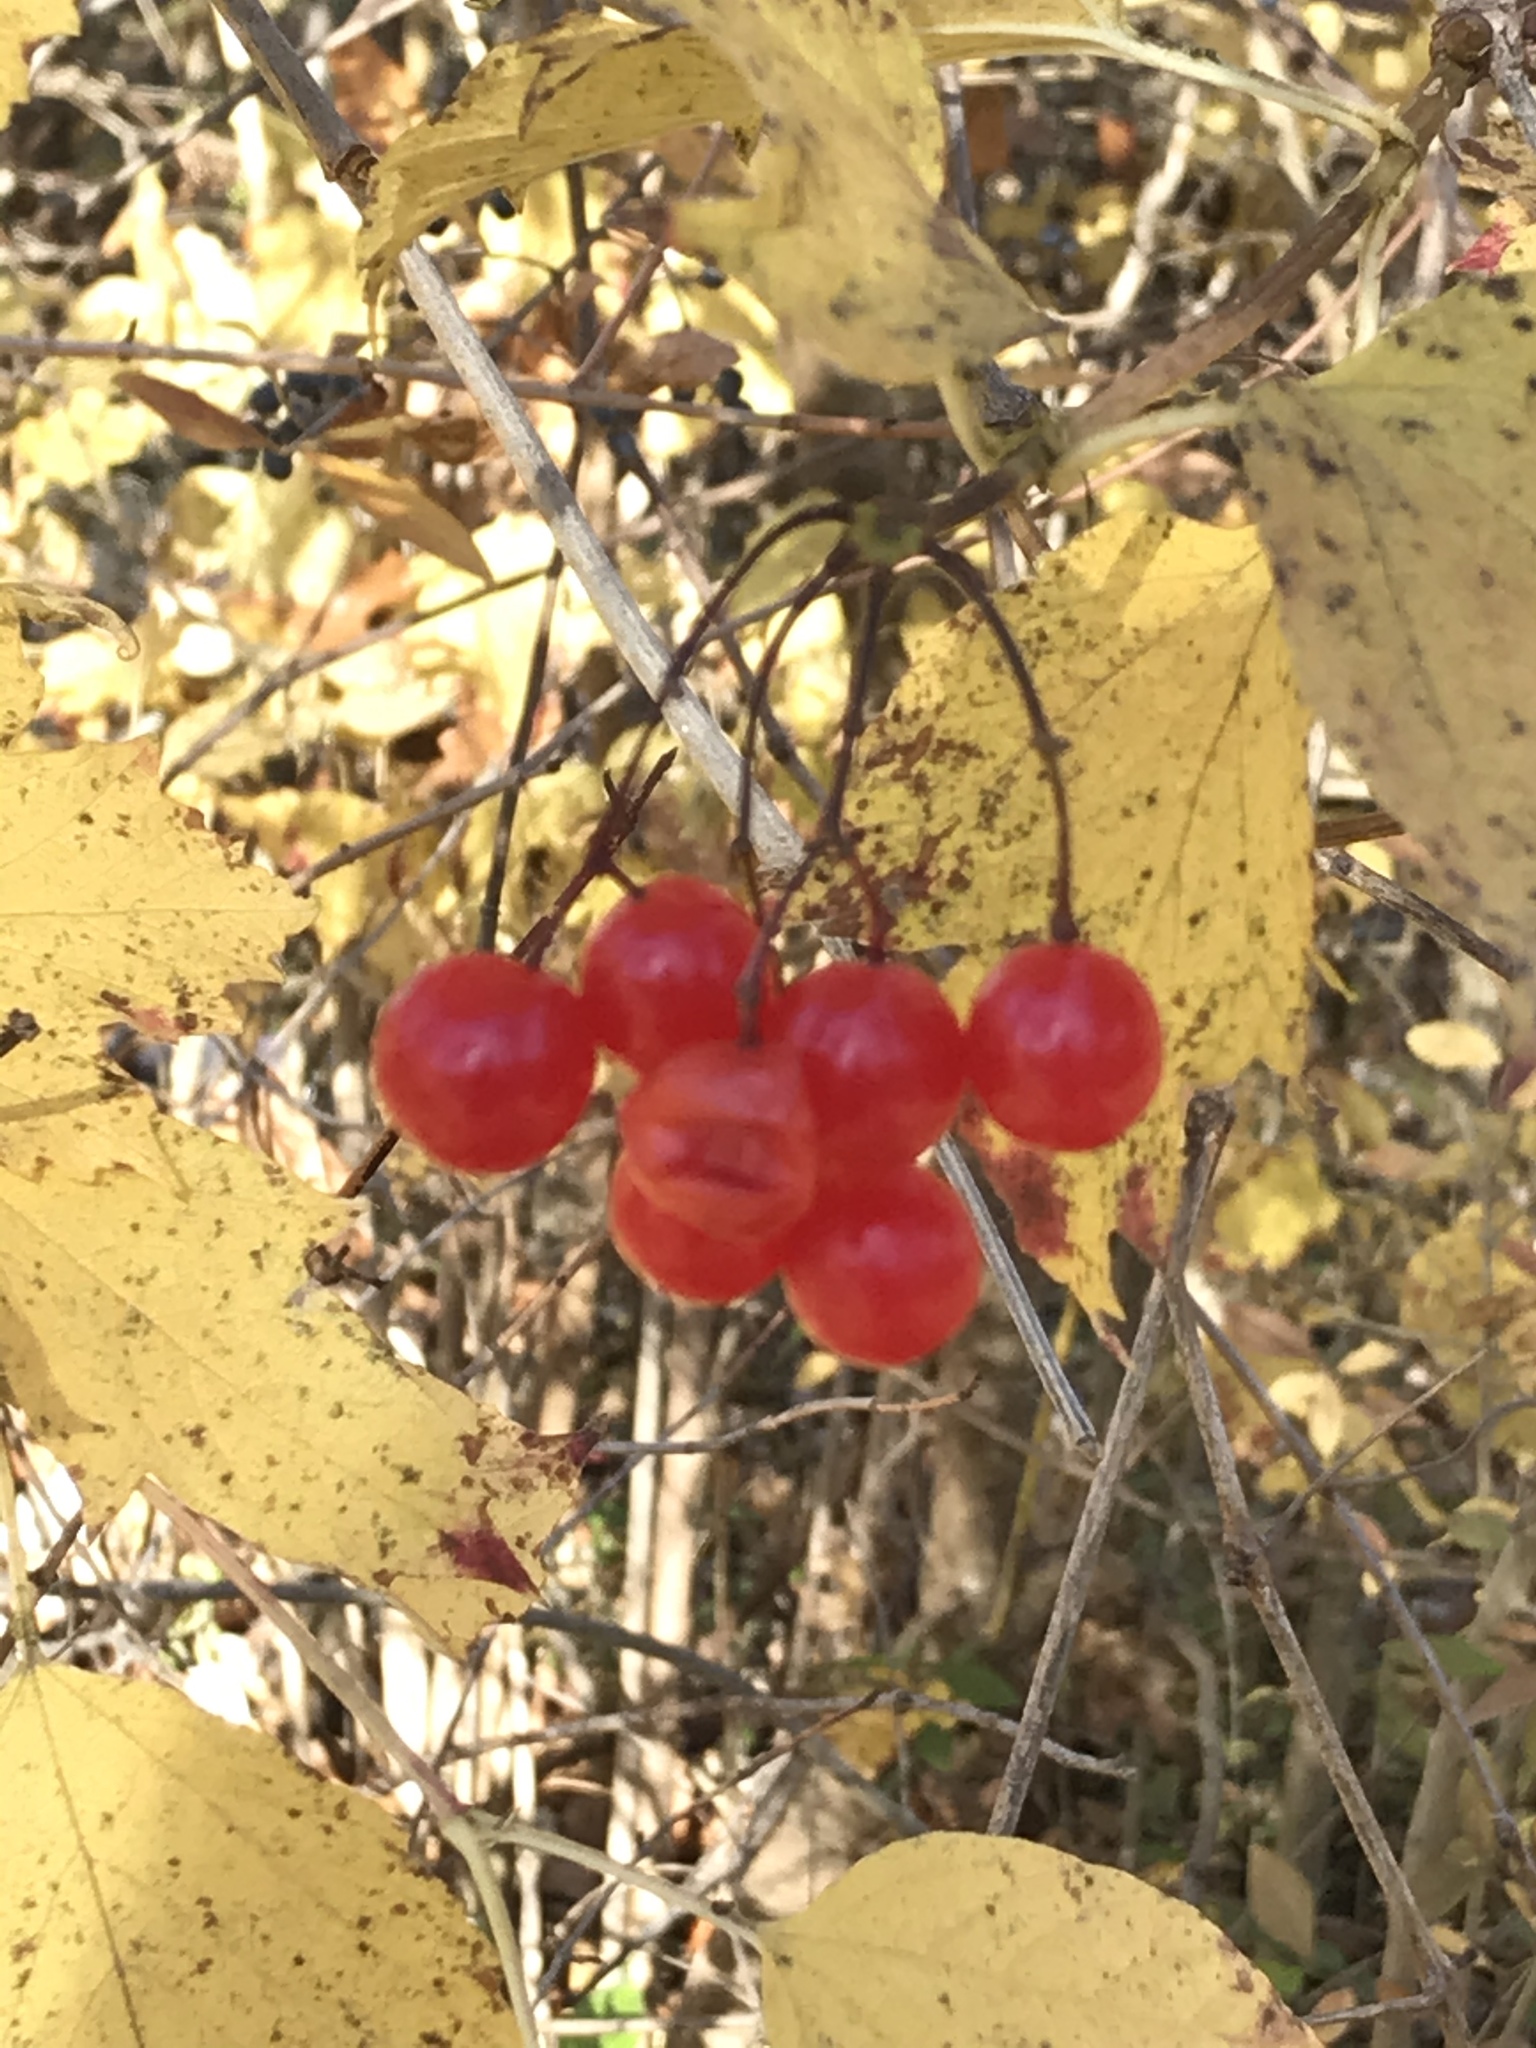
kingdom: Plantae
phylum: Tracheophyta
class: Magnoliopsida
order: Dipsacales
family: Viburnaceae
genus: Viburnum
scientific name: Viburnum opulus
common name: Guelder-rose
